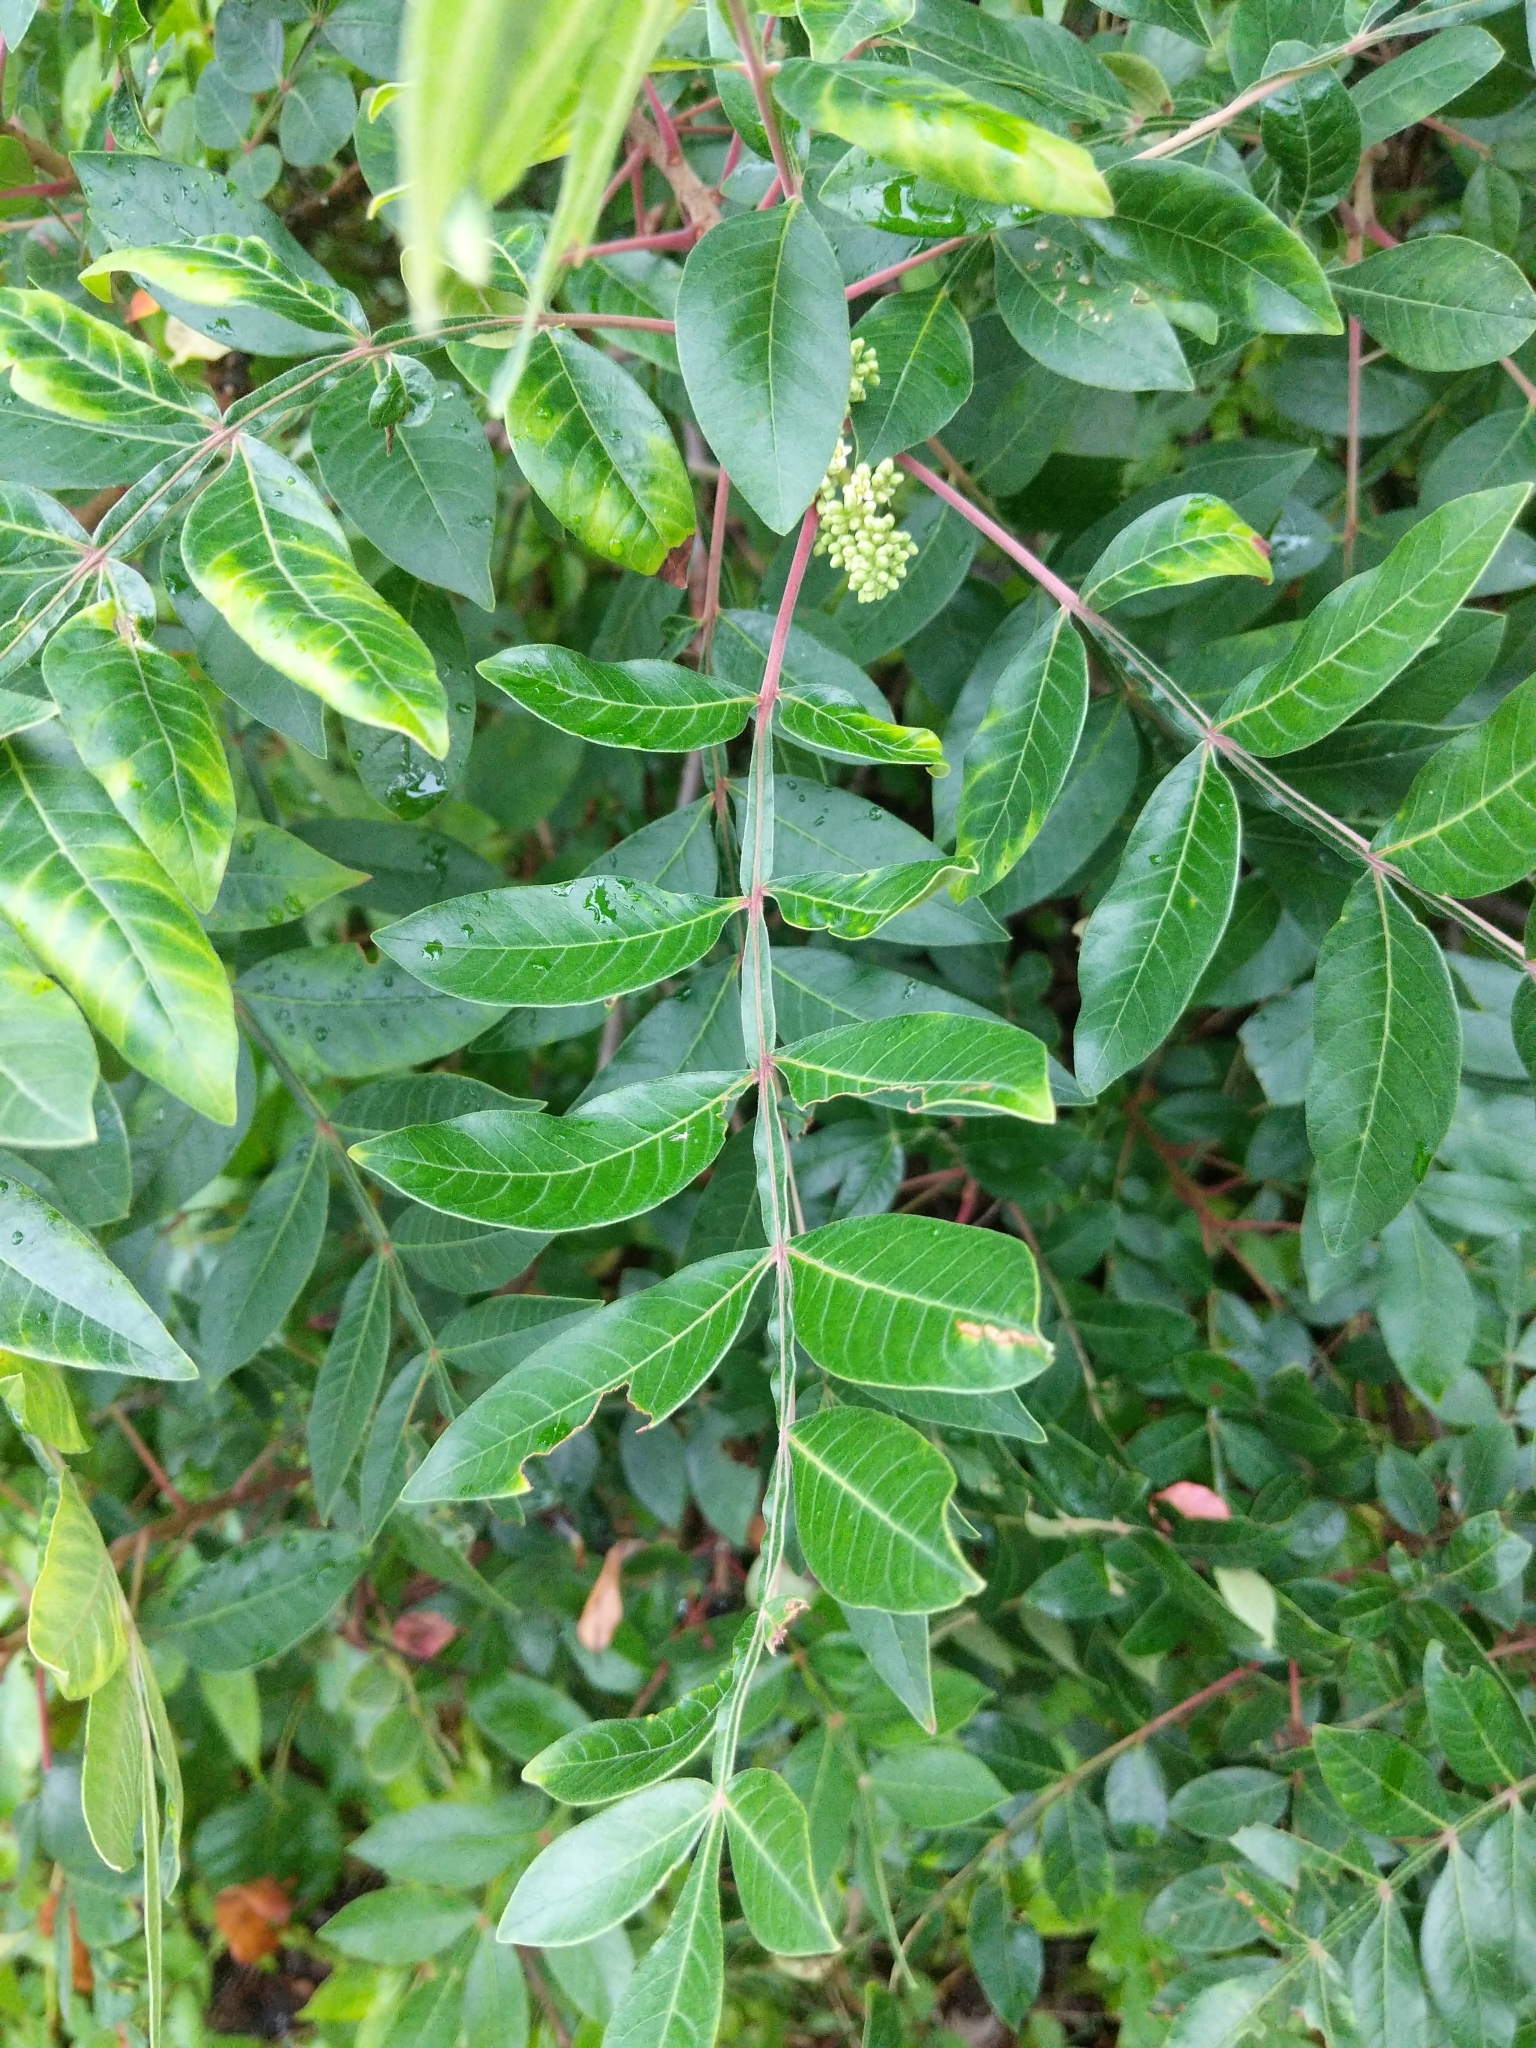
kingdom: Plantae
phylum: Tracheophyta
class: Magnoliopsida
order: Sapindales
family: Anacardiaceae
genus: Rhus
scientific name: Rhus copallina
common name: Shining sumac
